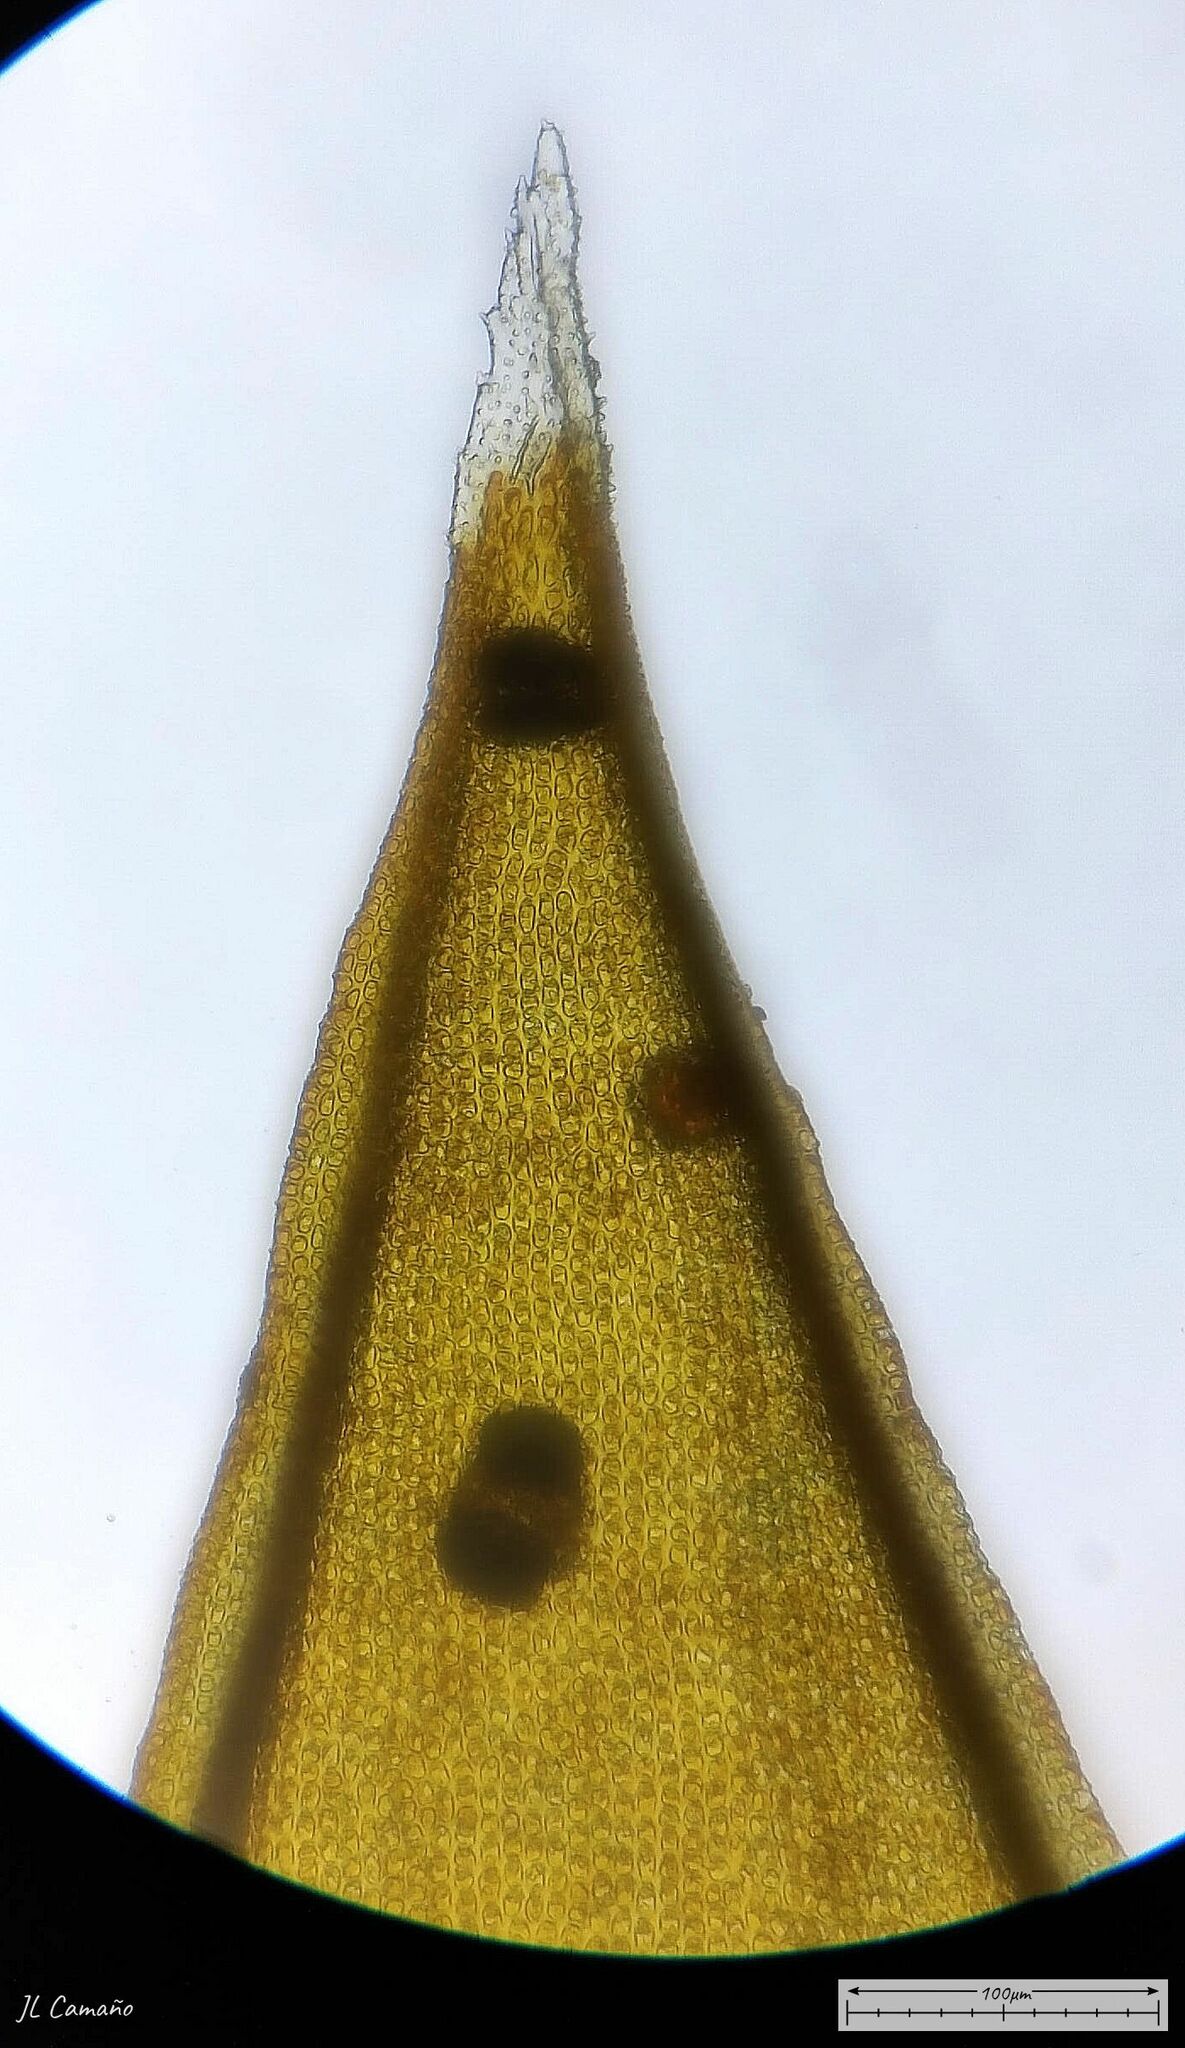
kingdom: Plantae
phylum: Bryophyta
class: Bryopsida
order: Hedwigiales
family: Hedwigiaceae
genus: Hedwigia
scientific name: Hedwigia ciliata
